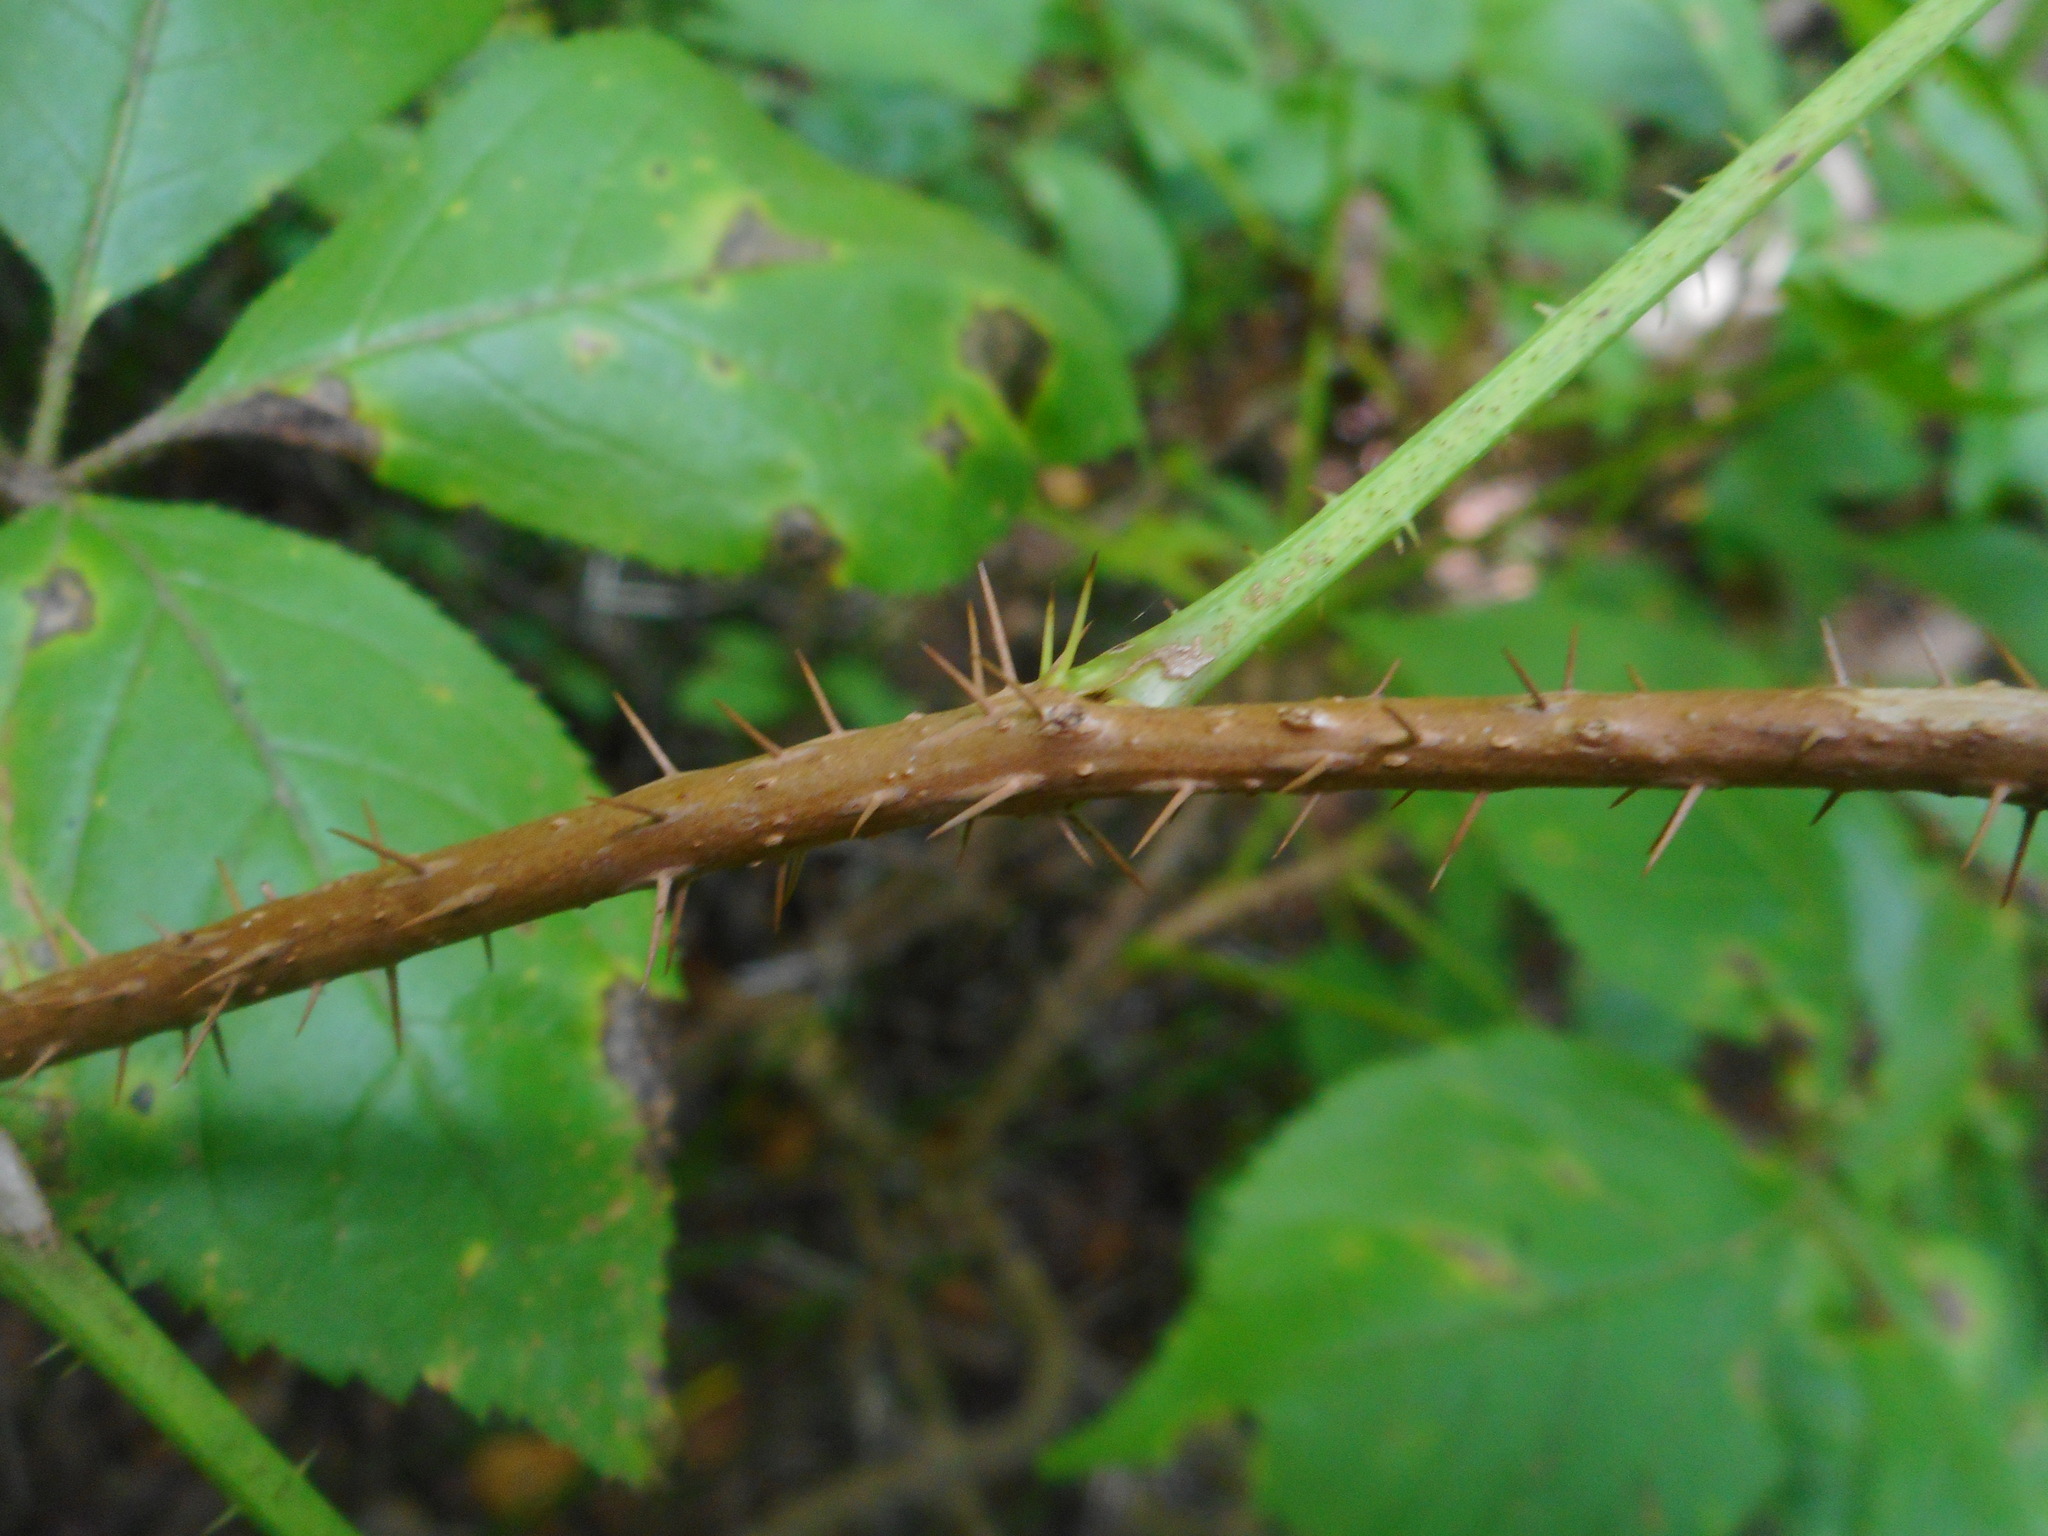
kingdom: Plantae
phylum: Tracheophyta
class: Magnoliopsida
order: Apiales
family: Araliaceae
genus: Eleutherococcus
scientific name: Eleutherococcus senticosus
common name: Siberian-ginseng
